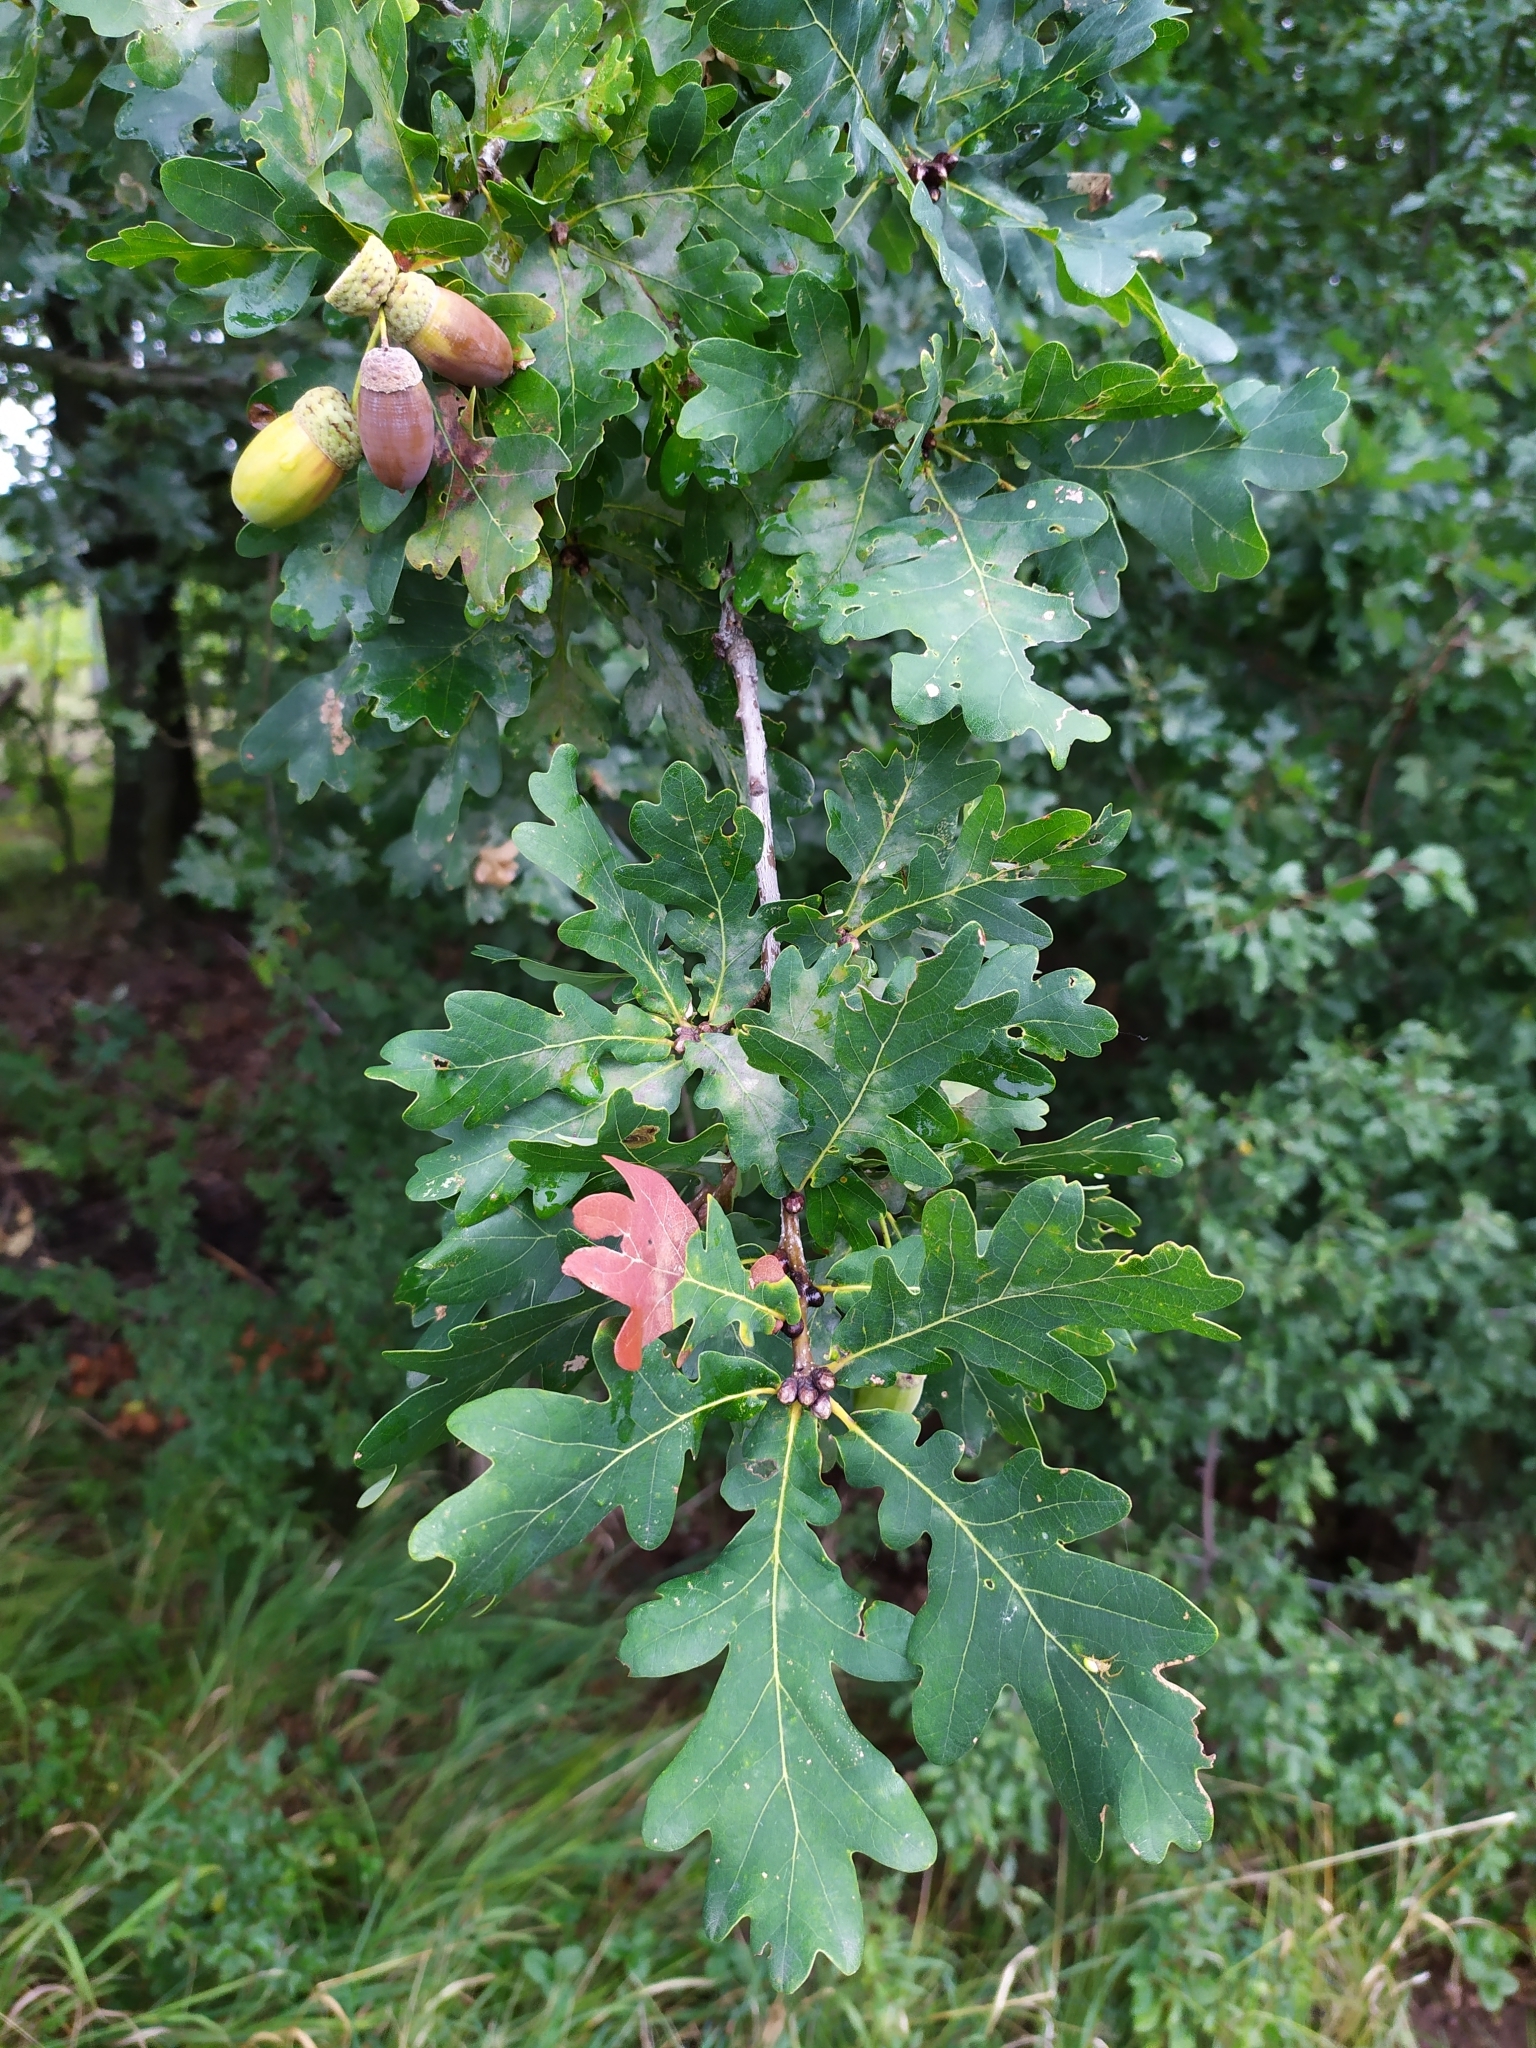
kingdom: Plantae
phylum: Tracheophyta
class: Magnoliopsida
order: Fagales
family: Fagaceae
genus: Quercus
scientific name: Quercus robur
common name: Pedunculate oak
